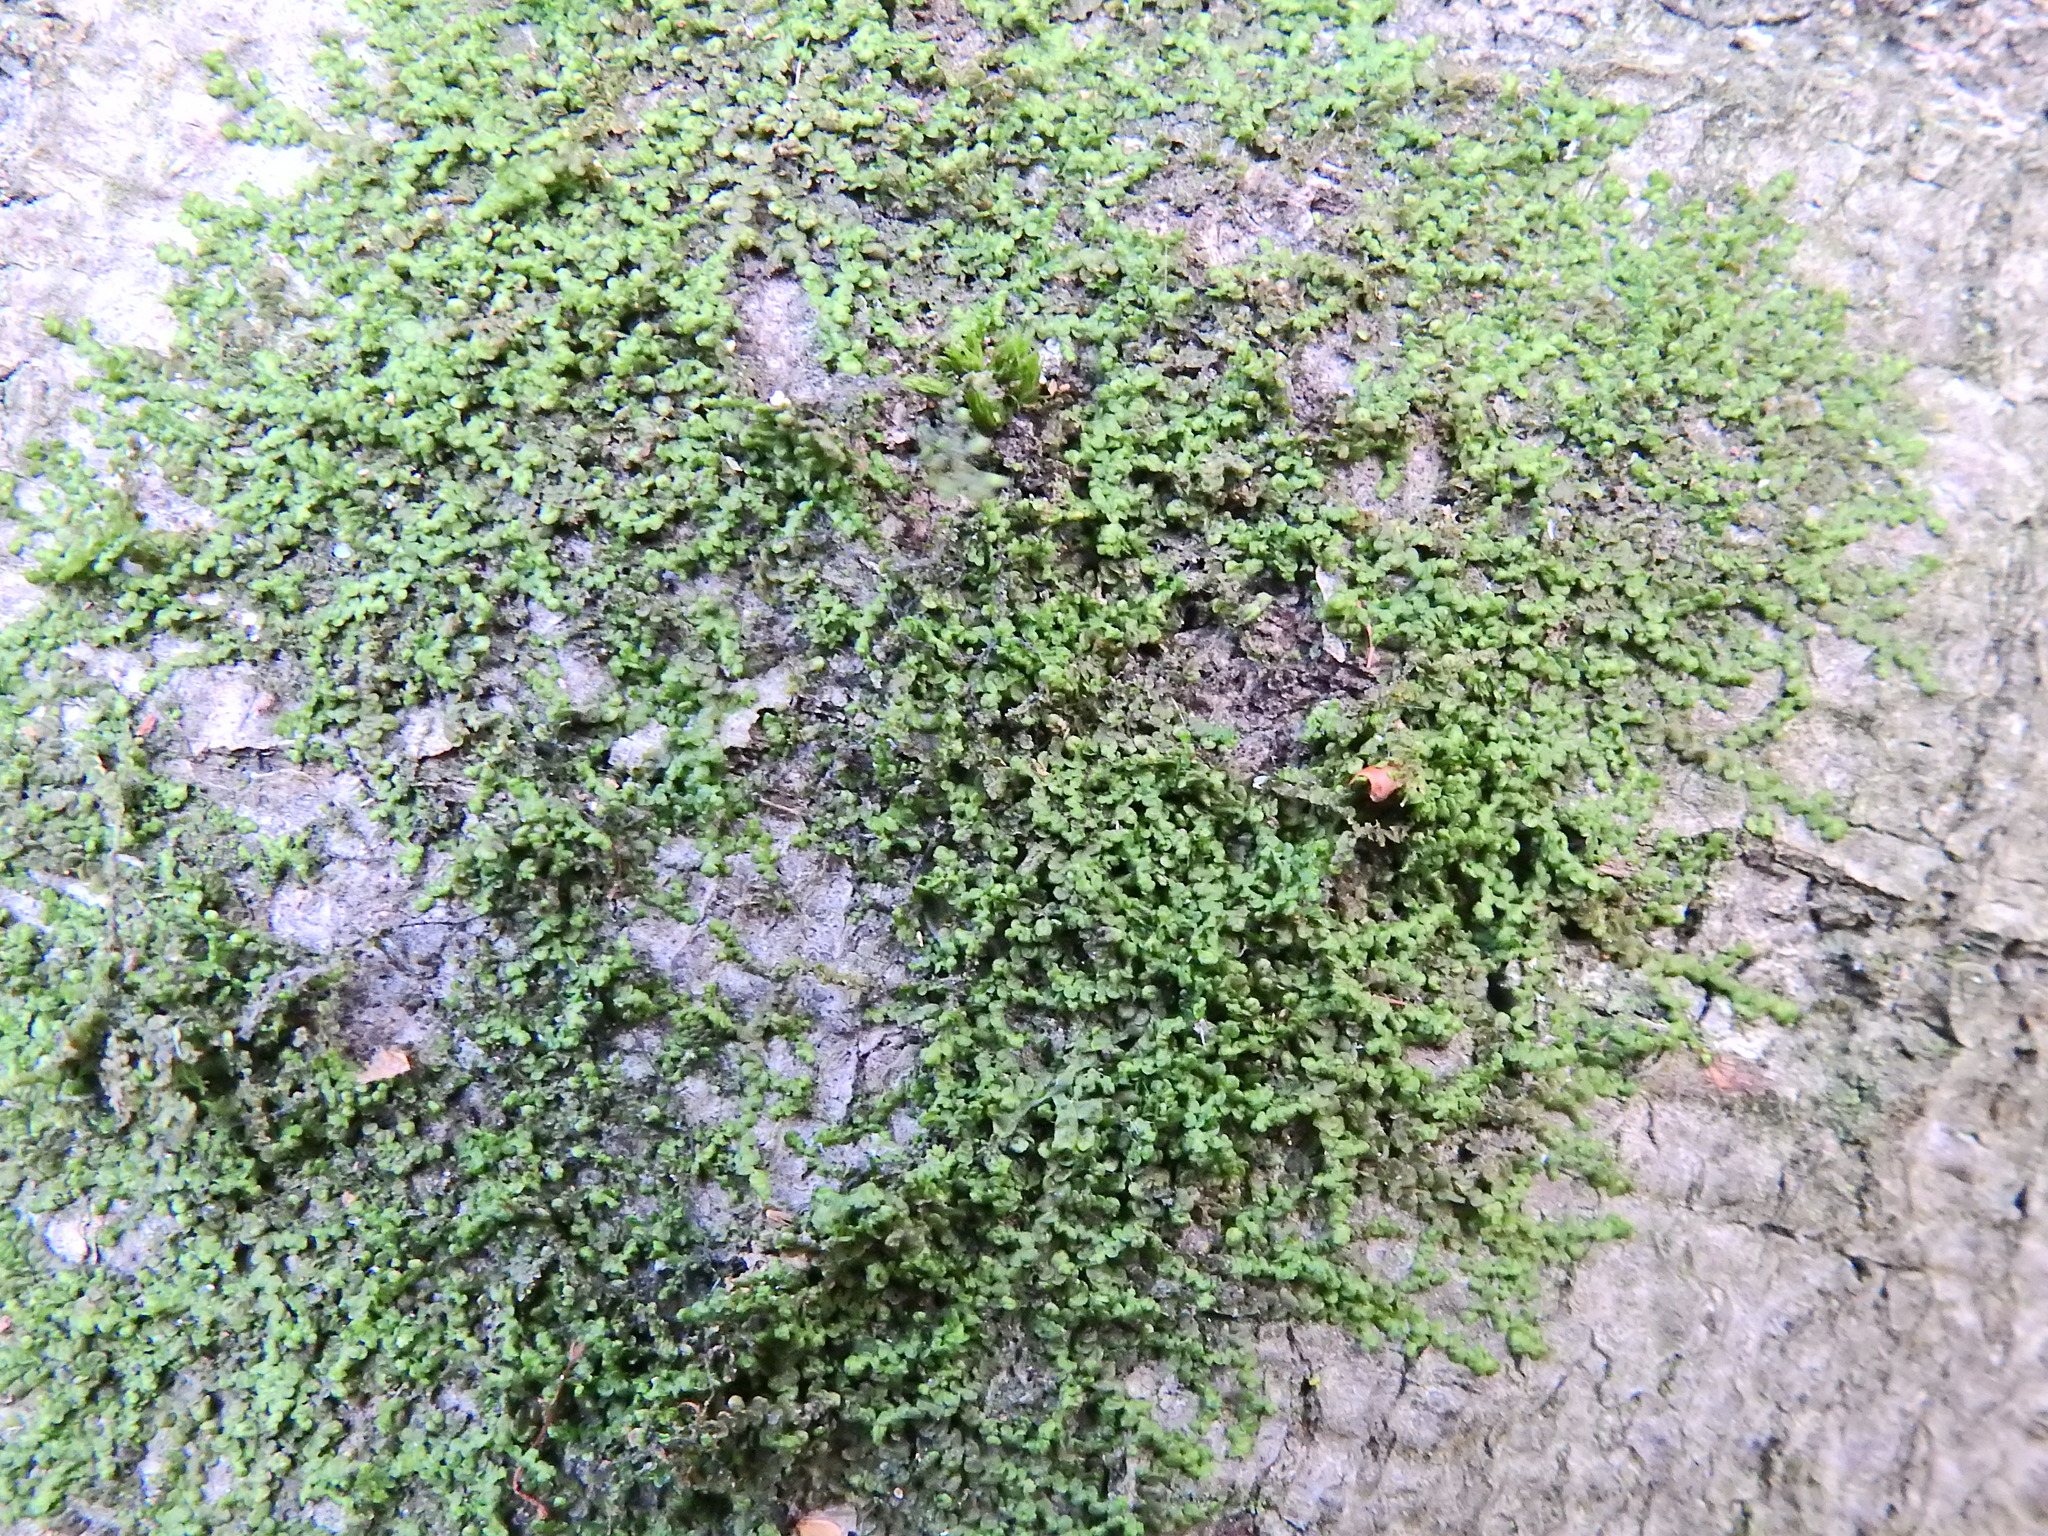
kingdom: Plantae
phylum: Marchantiophyta
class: Jungermanniopsida
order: Porellales
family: Frullaniaceae
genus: Frullania
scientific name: Frullania dilatata
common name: Dilated scalewort
